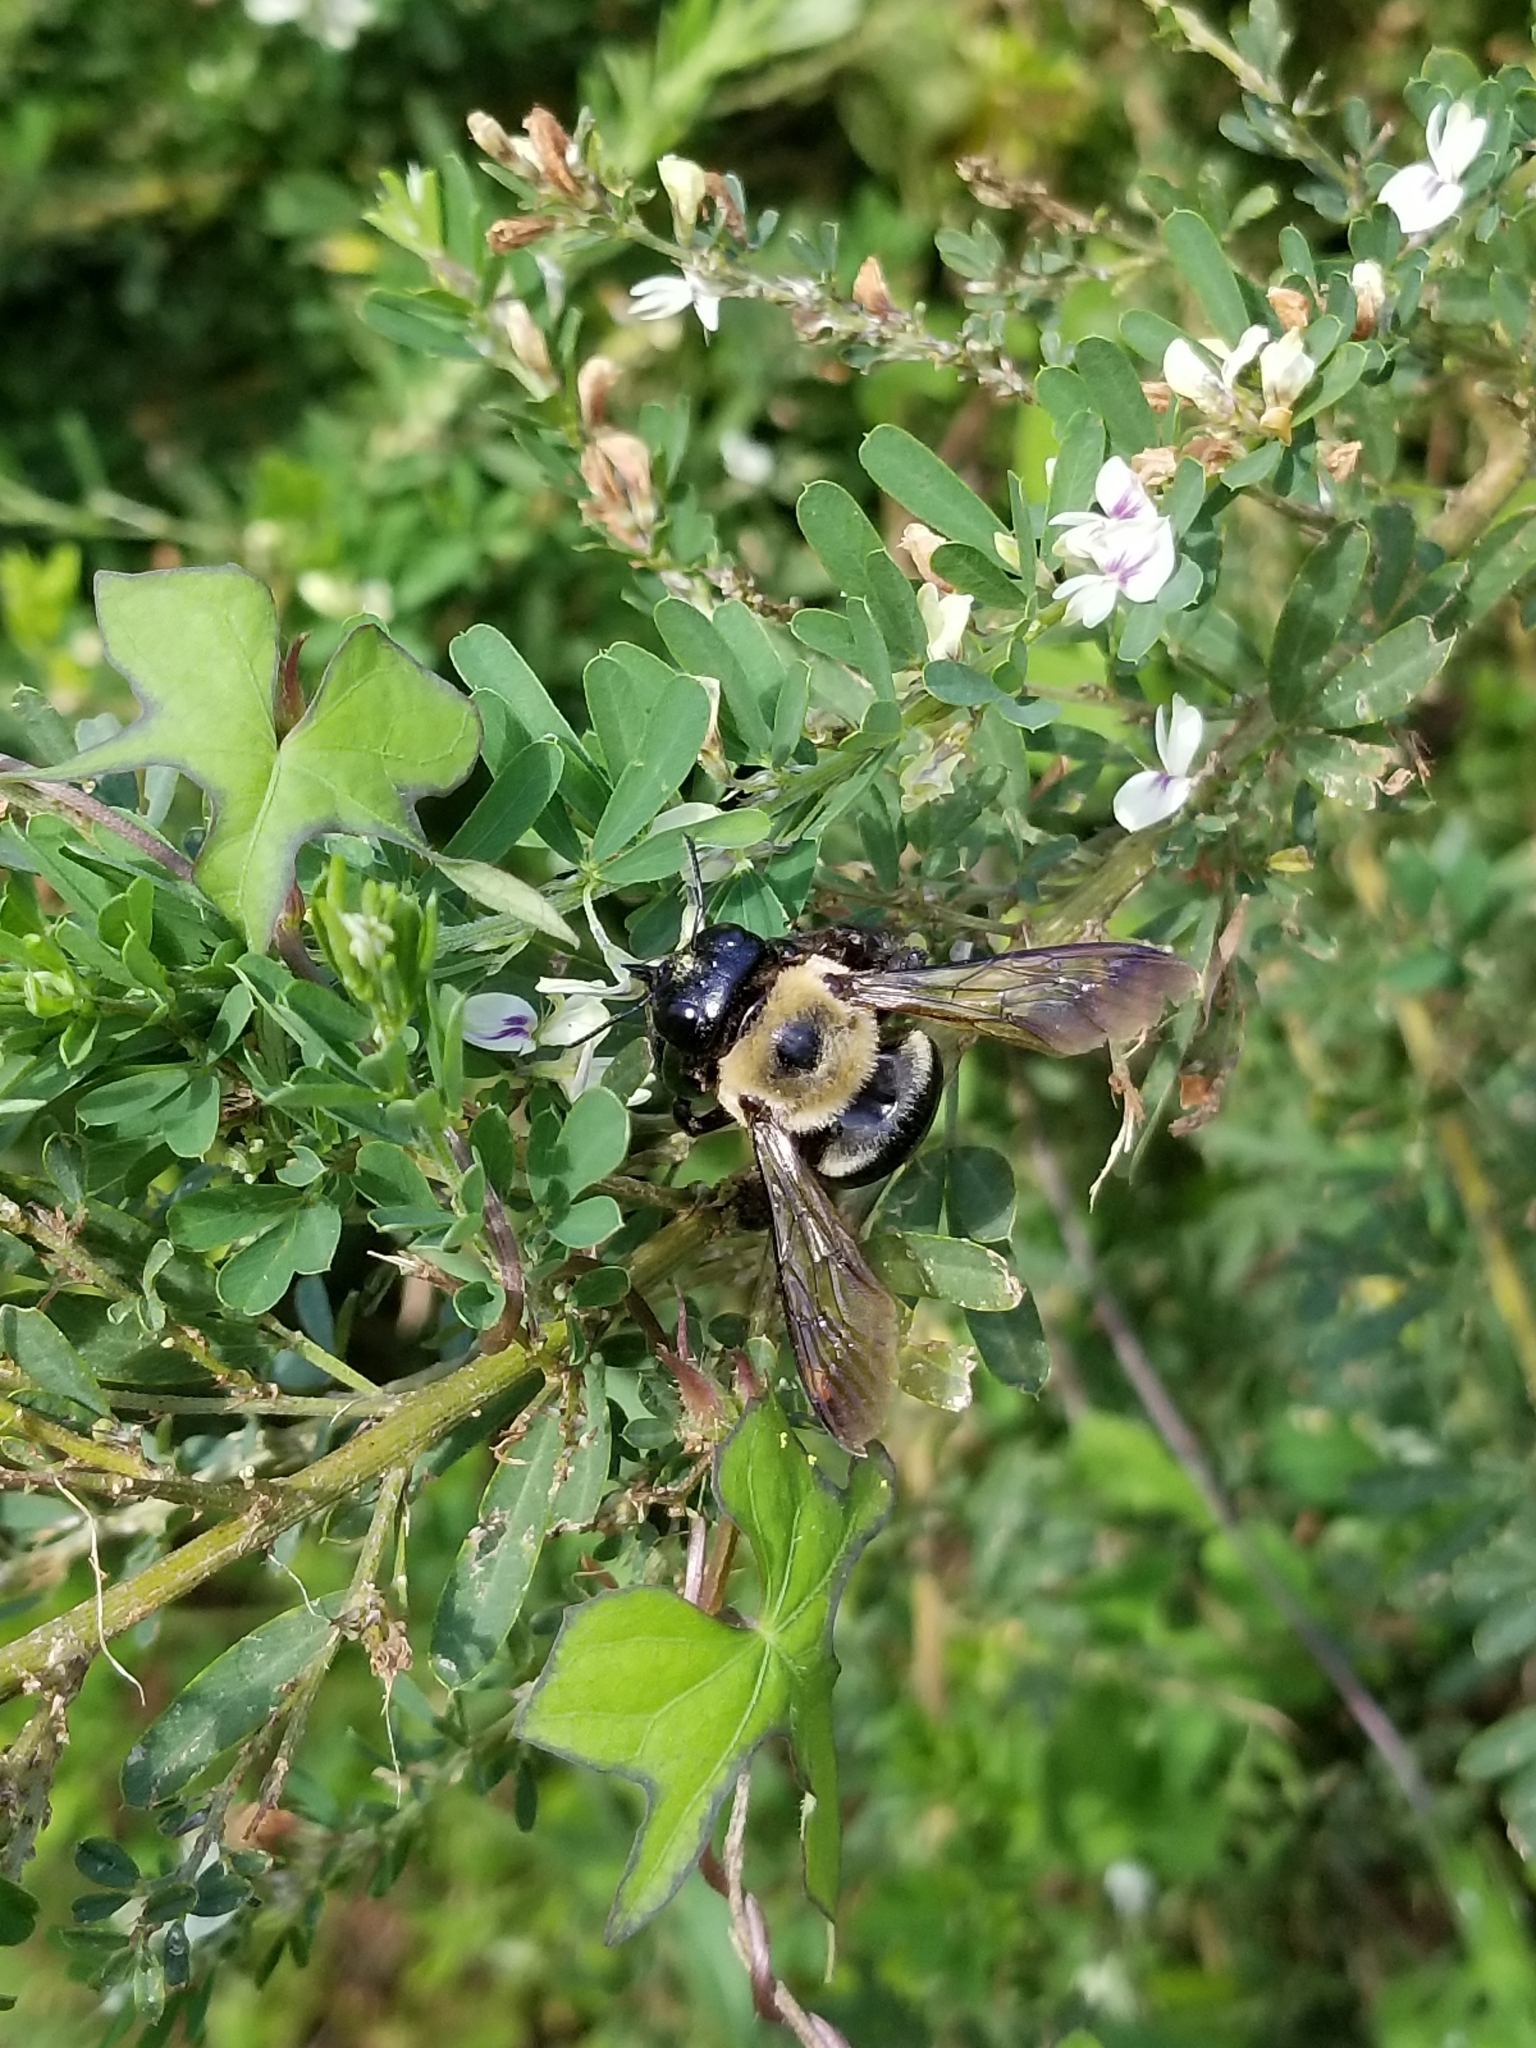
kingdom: Animalia
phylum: Arthropoda
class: Insecta
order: Hymenoptera
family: Apidae
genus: Xylocopa
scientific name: Xylocopa virginica
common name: Carpenter bee
